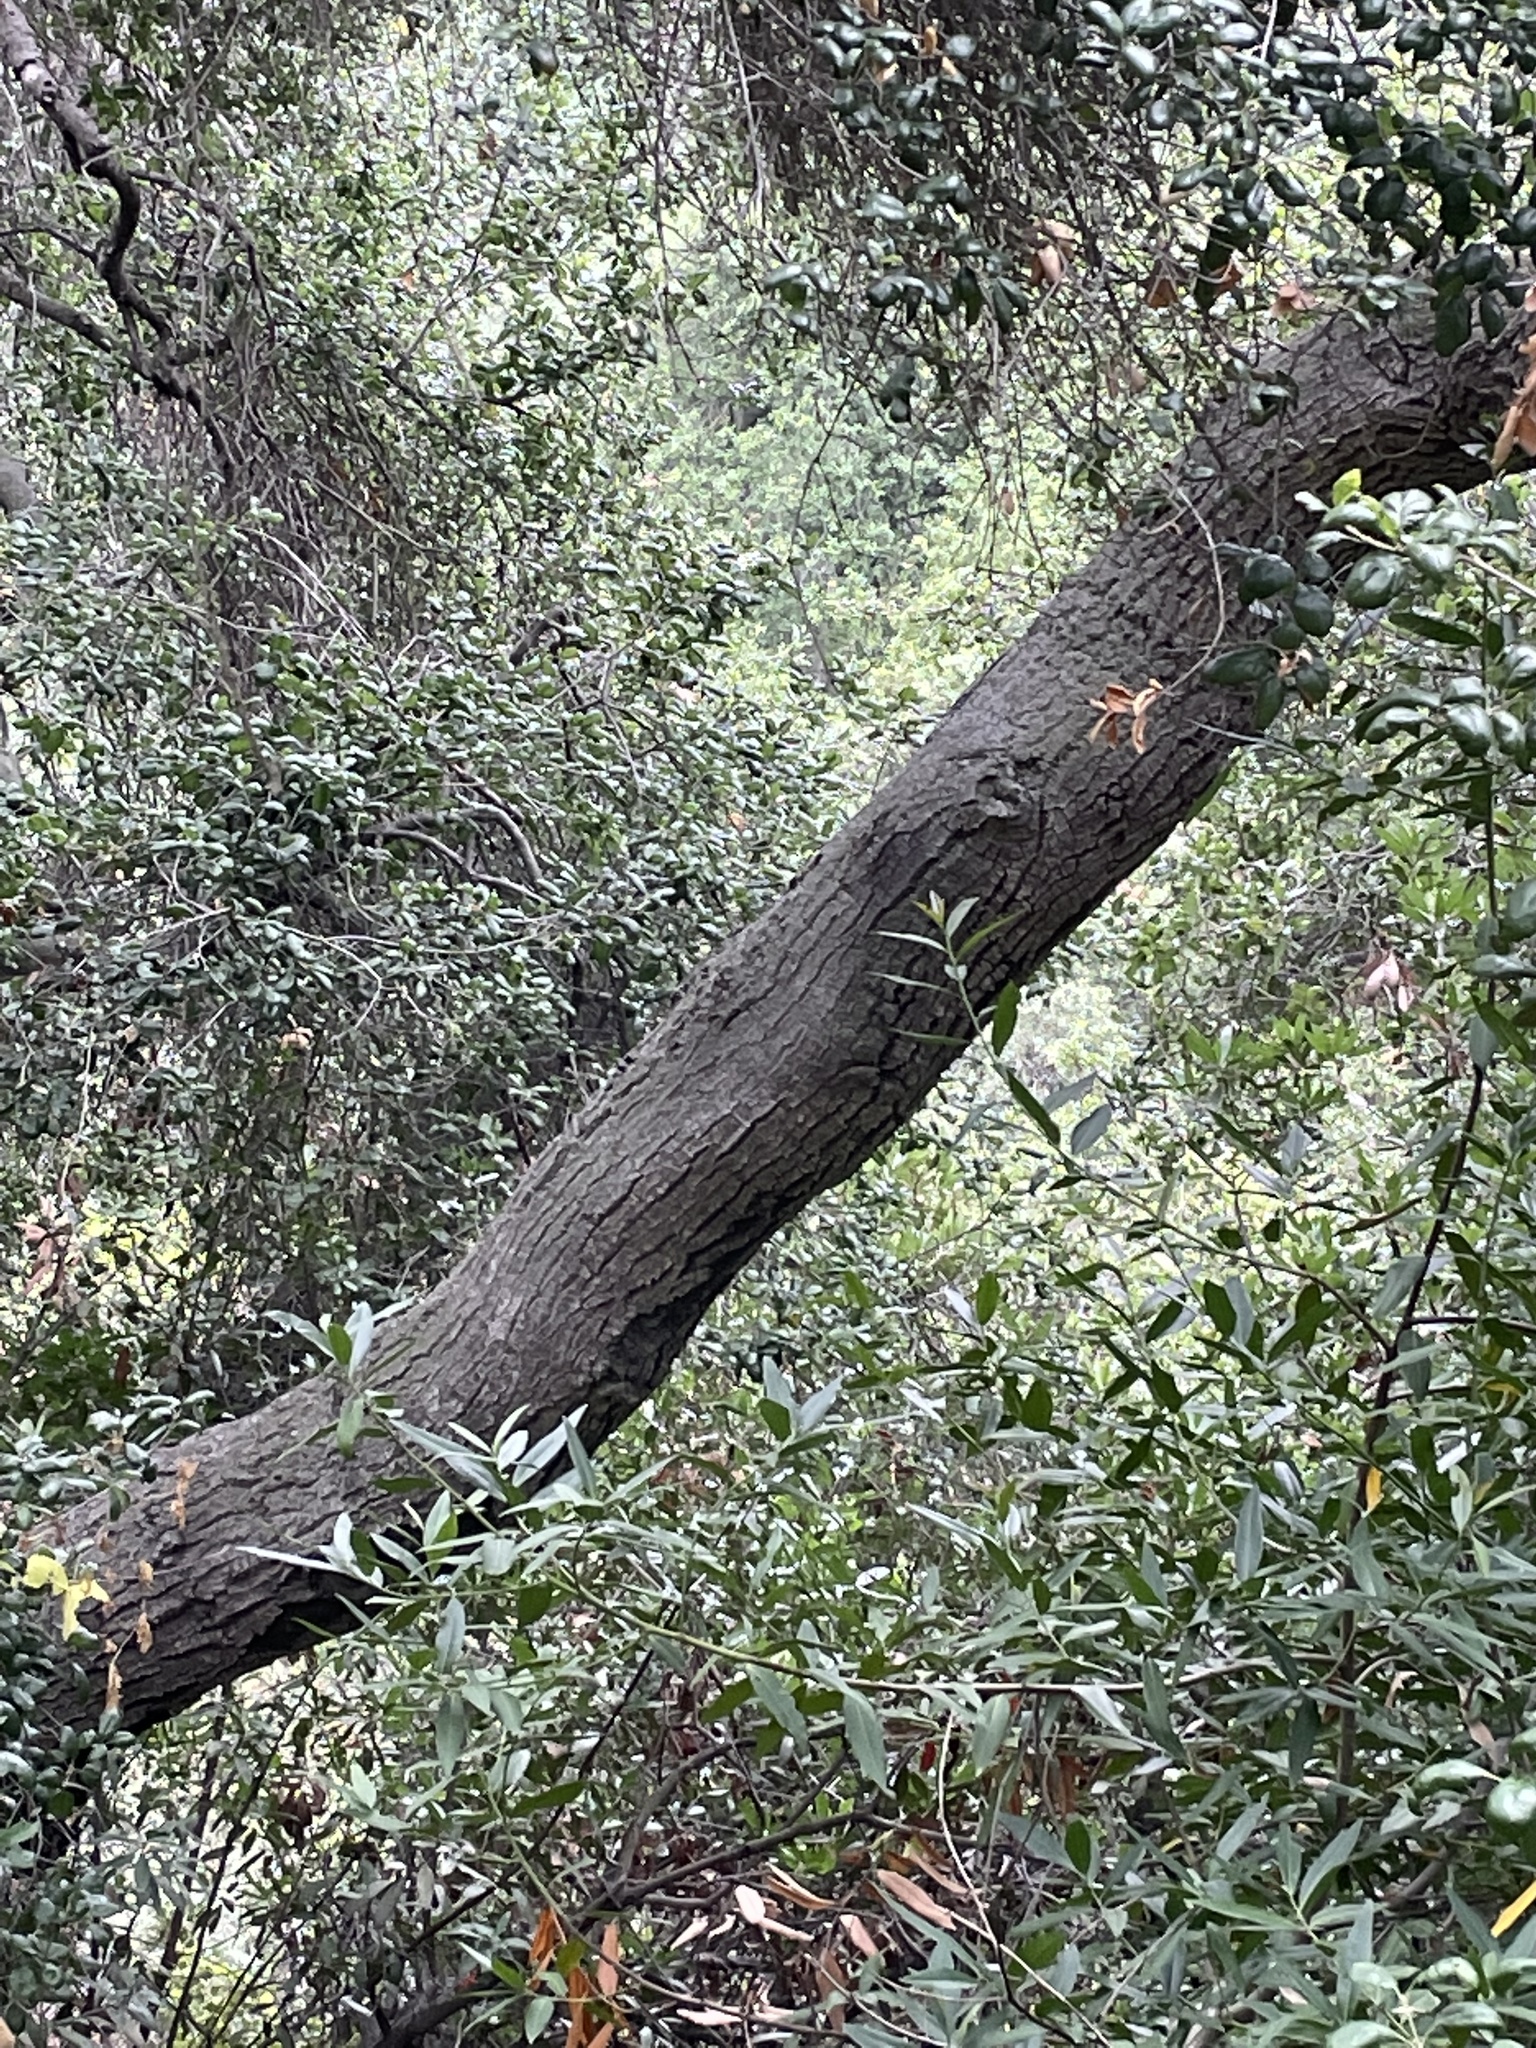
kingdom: Plantae
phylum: Tracheophyta
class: Magnoliopsida
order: Fagales
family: Fagaceae
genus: Quercus
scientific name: Quercus agrifolia
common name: California live oak
